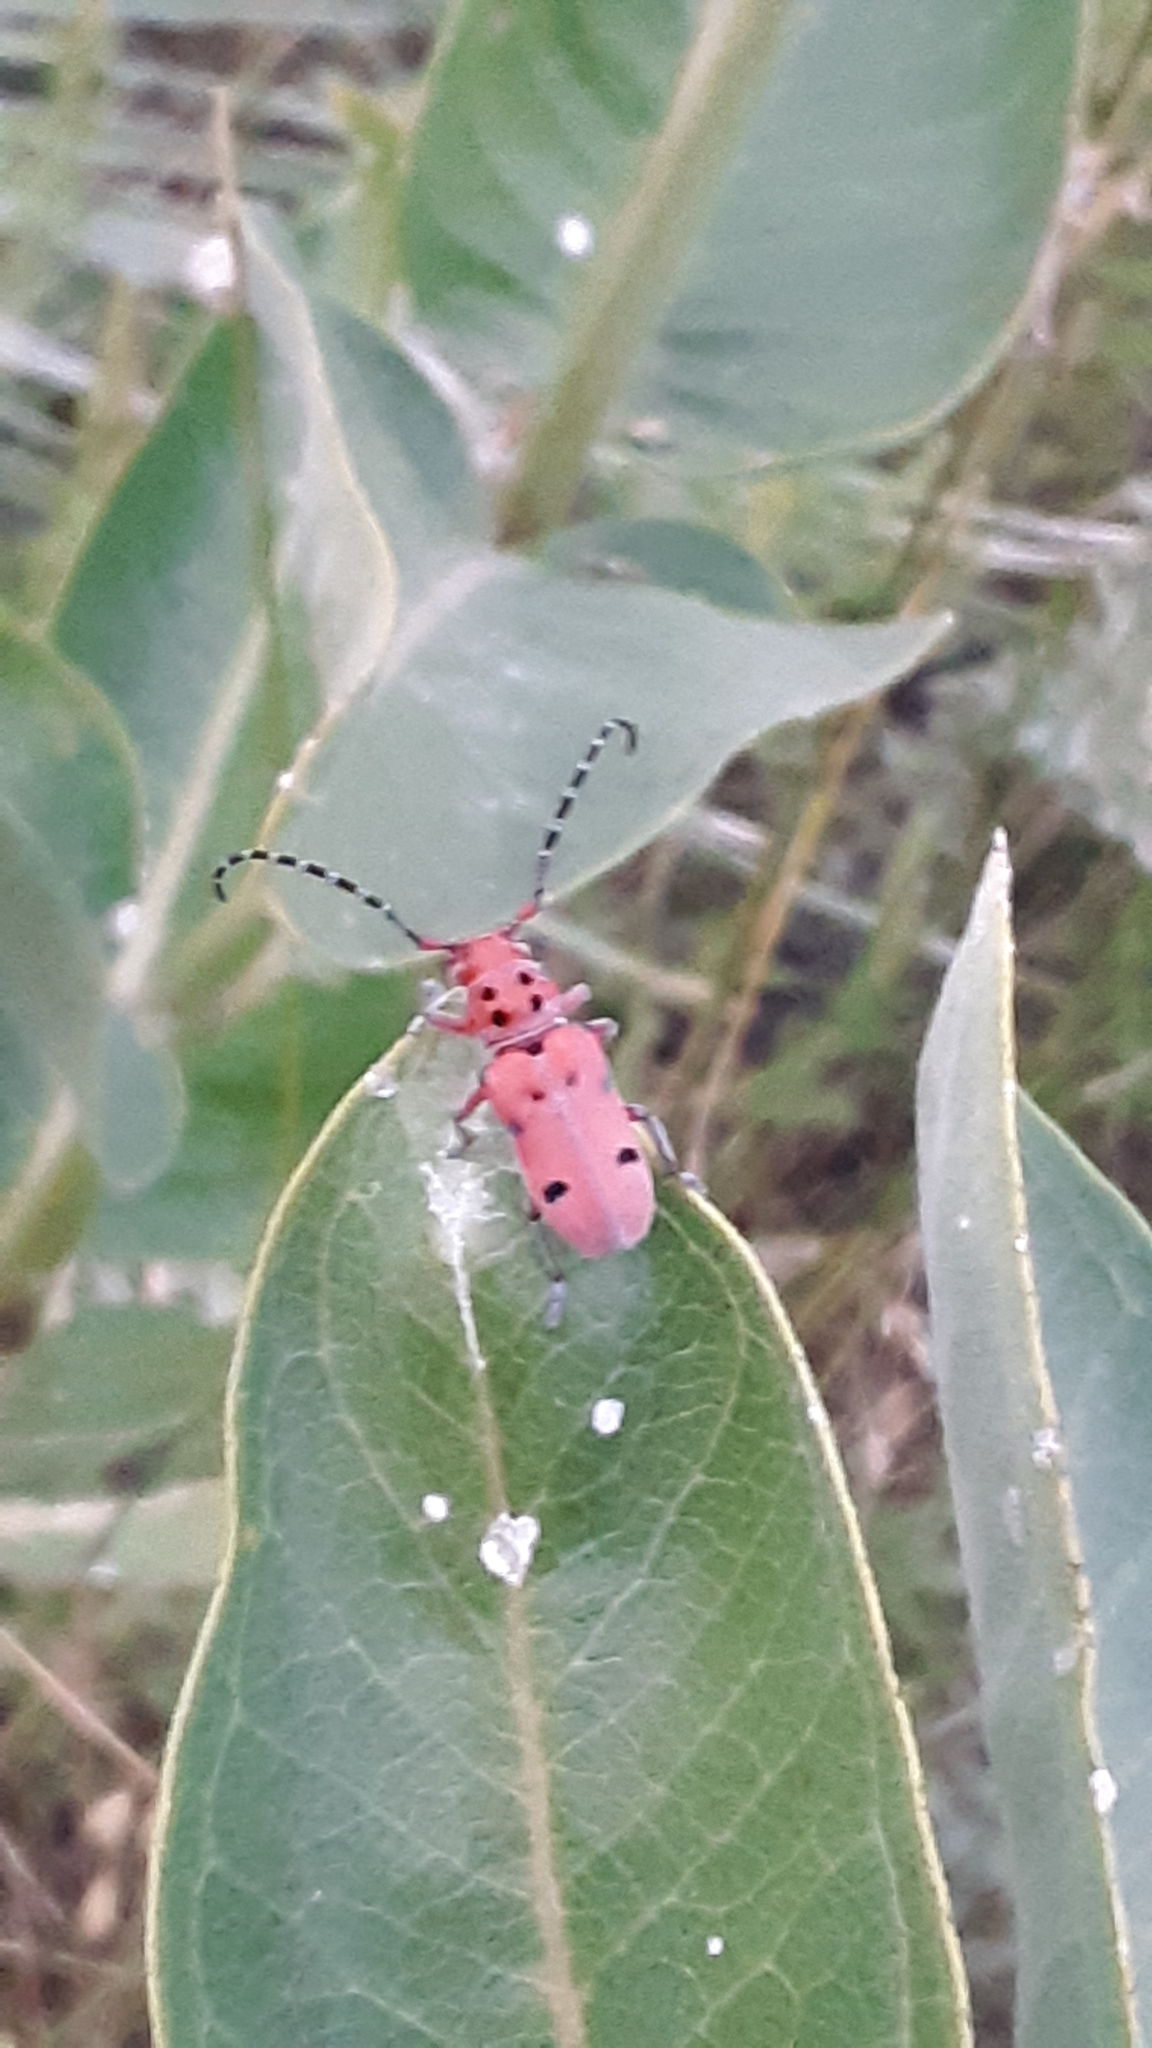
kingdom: Animalia
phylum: Arthropoda
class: Insecta
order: Coleoptera
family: Cerambycidae
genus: Tetraopes
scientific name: Tetraopes femoratus
